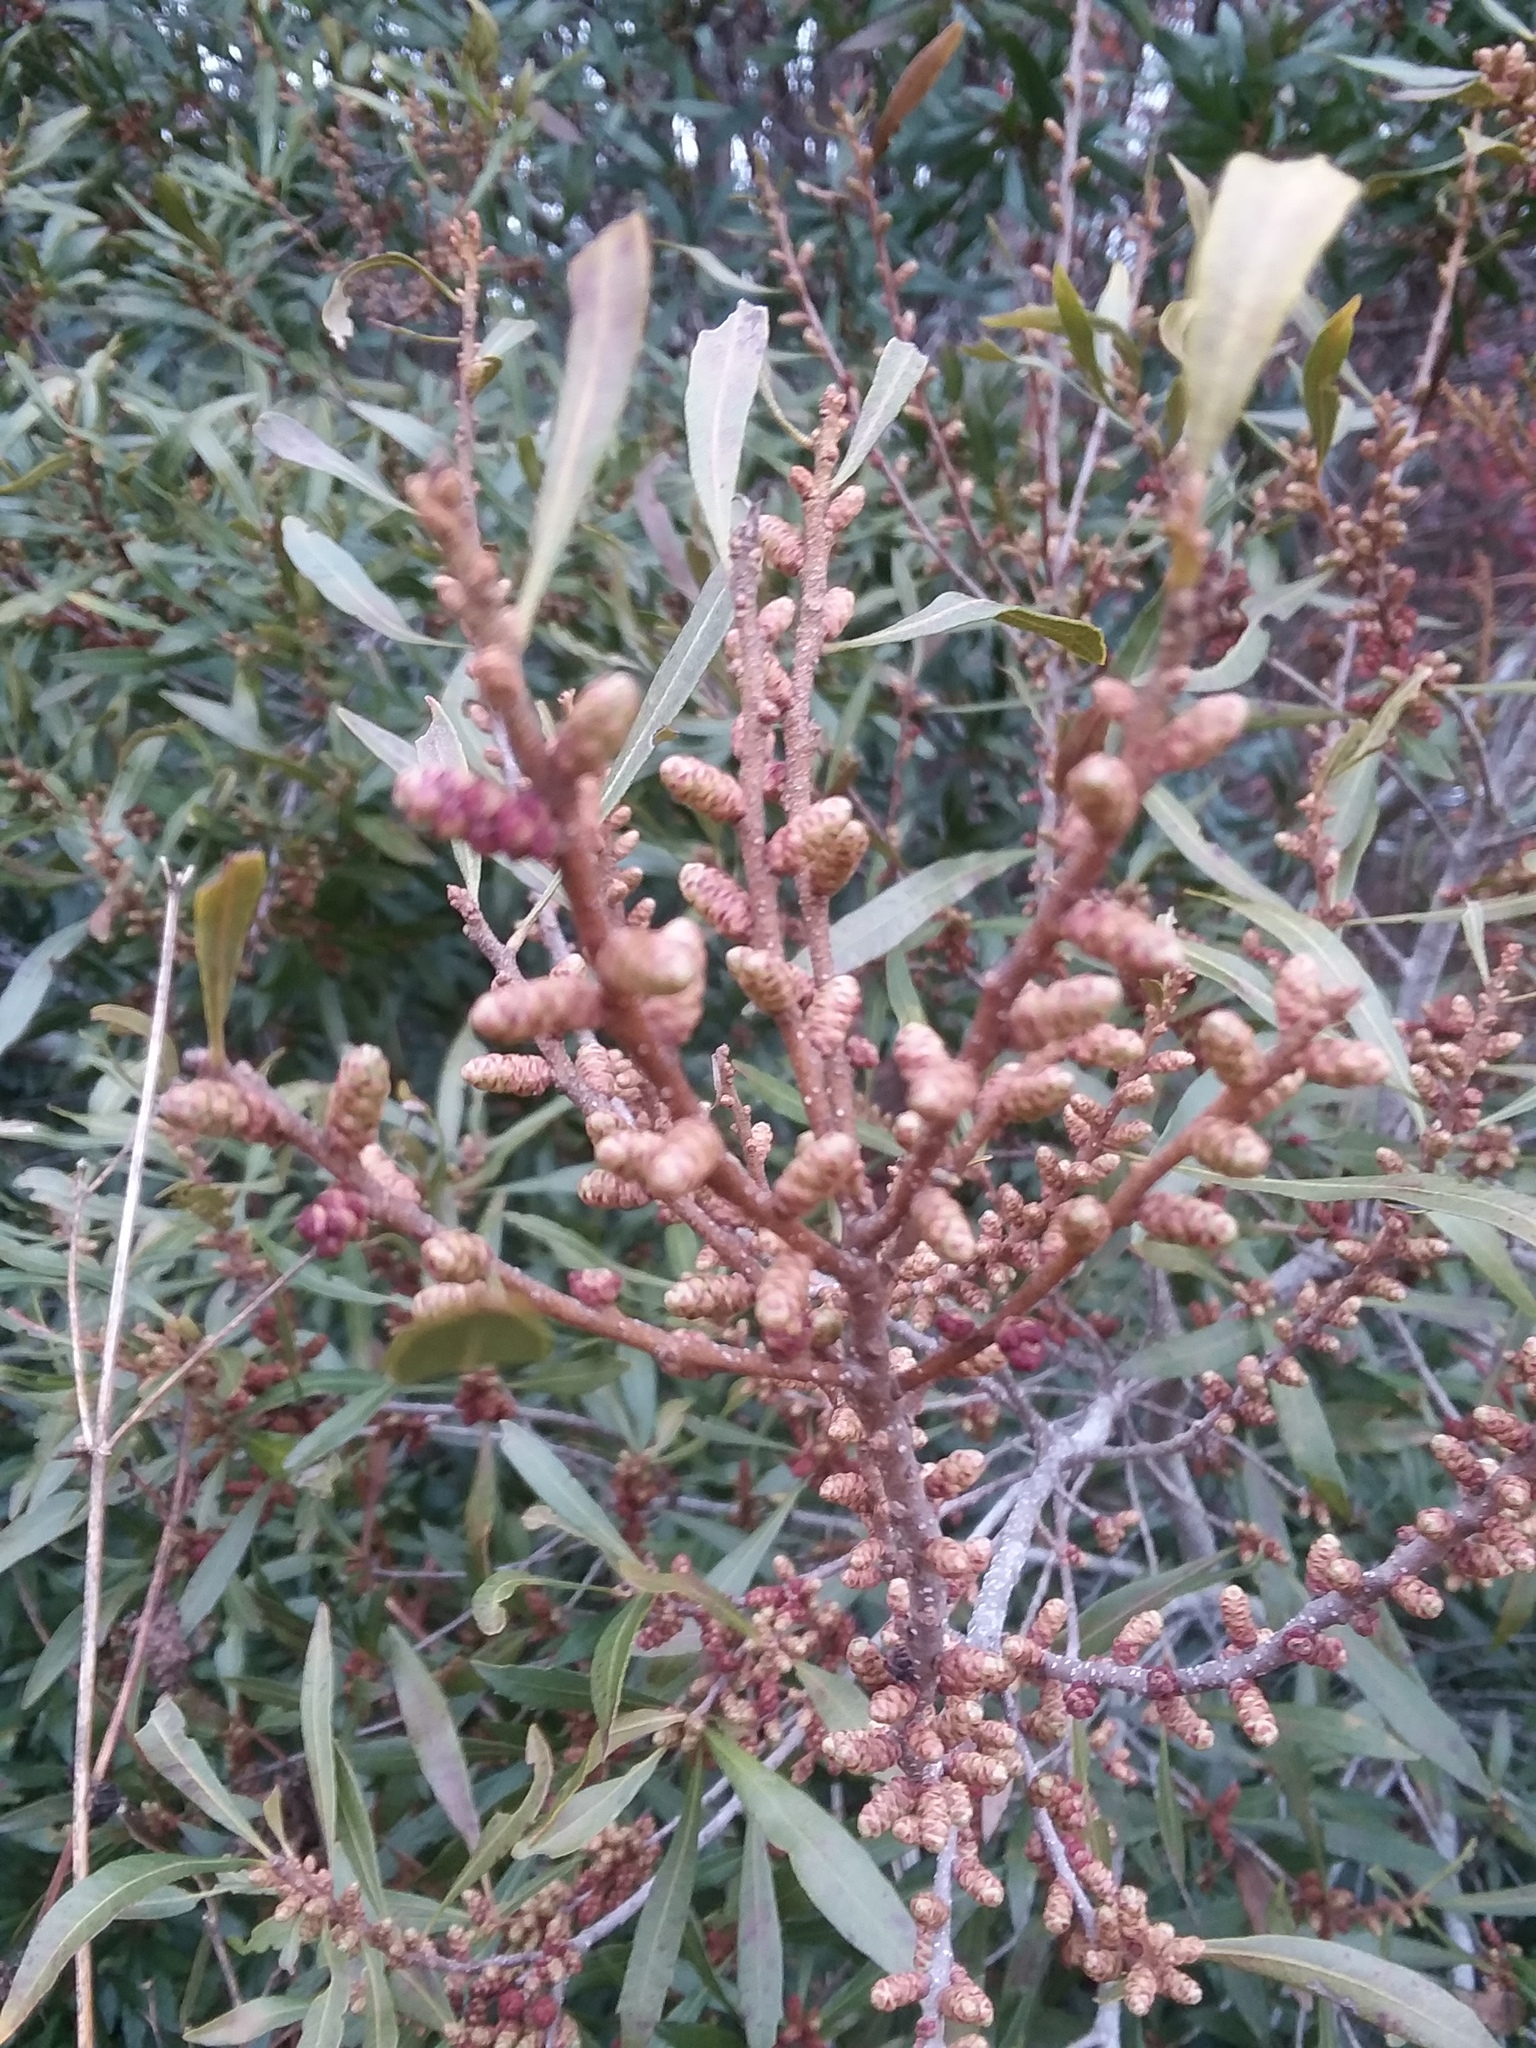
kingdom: Plantae
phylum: Tracheophyta
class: Magnoliopsida
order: Fagales
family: Myricaceae
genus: Morella
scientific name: Morella cerifera
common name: Wax myrtle
